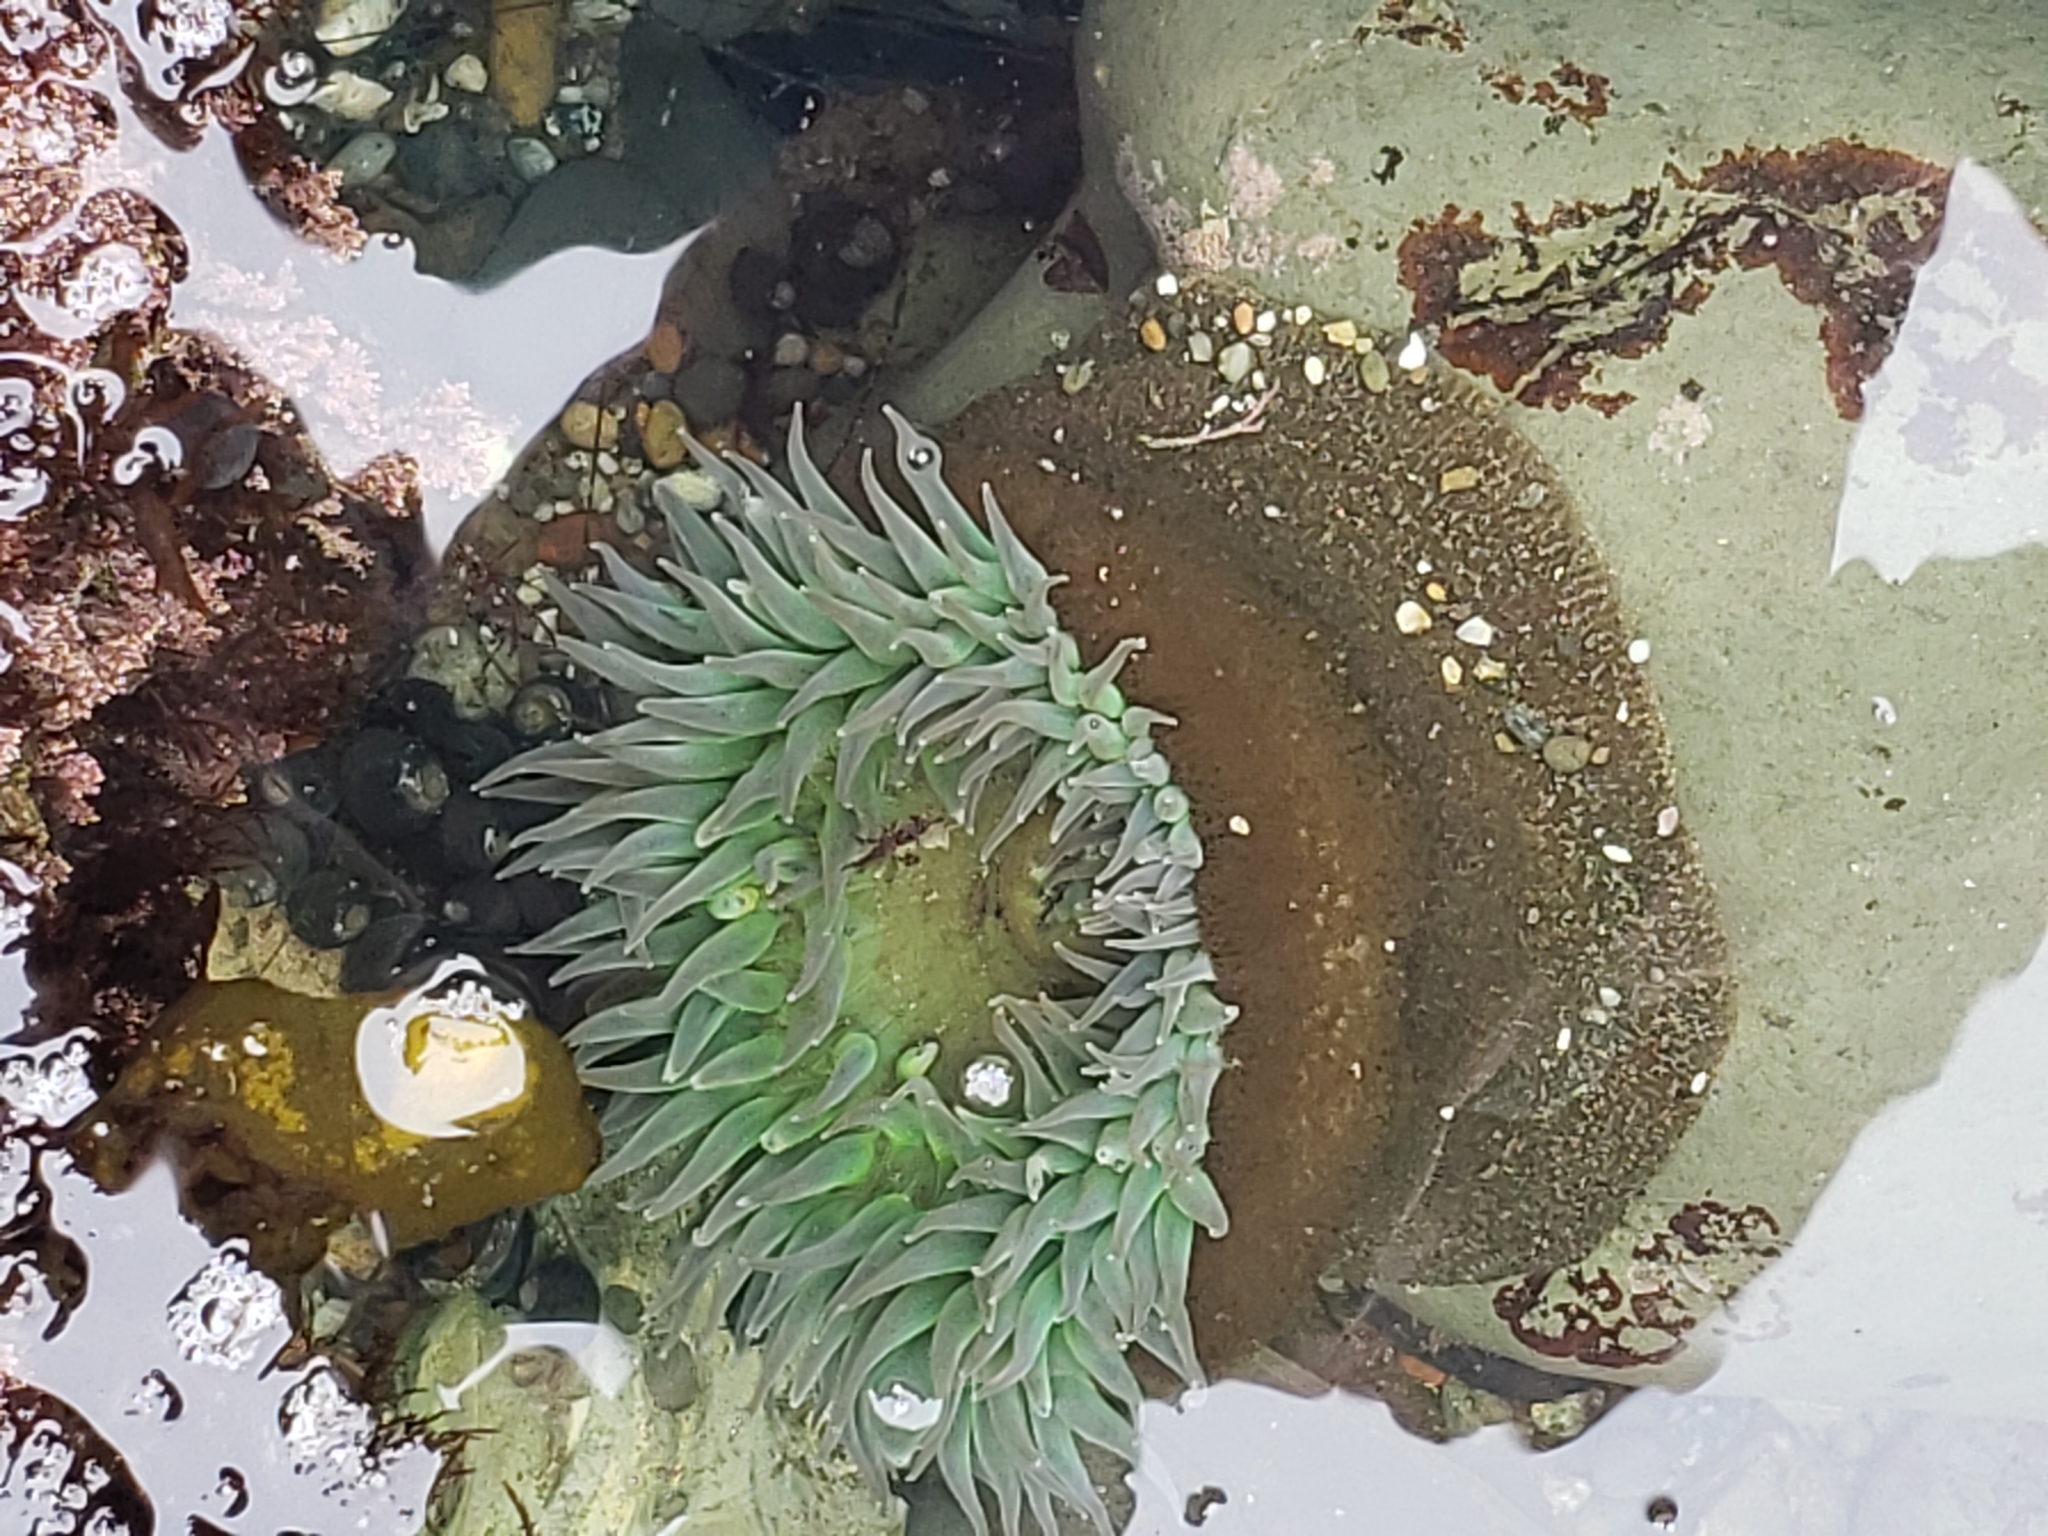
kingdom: Animalia
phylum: Cnidaria
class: Anthozoa
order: Actiniaria
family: Actiniidae
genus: Anthopleura
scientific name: Anthopleura xanthogrammica
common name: Giant green anemone
